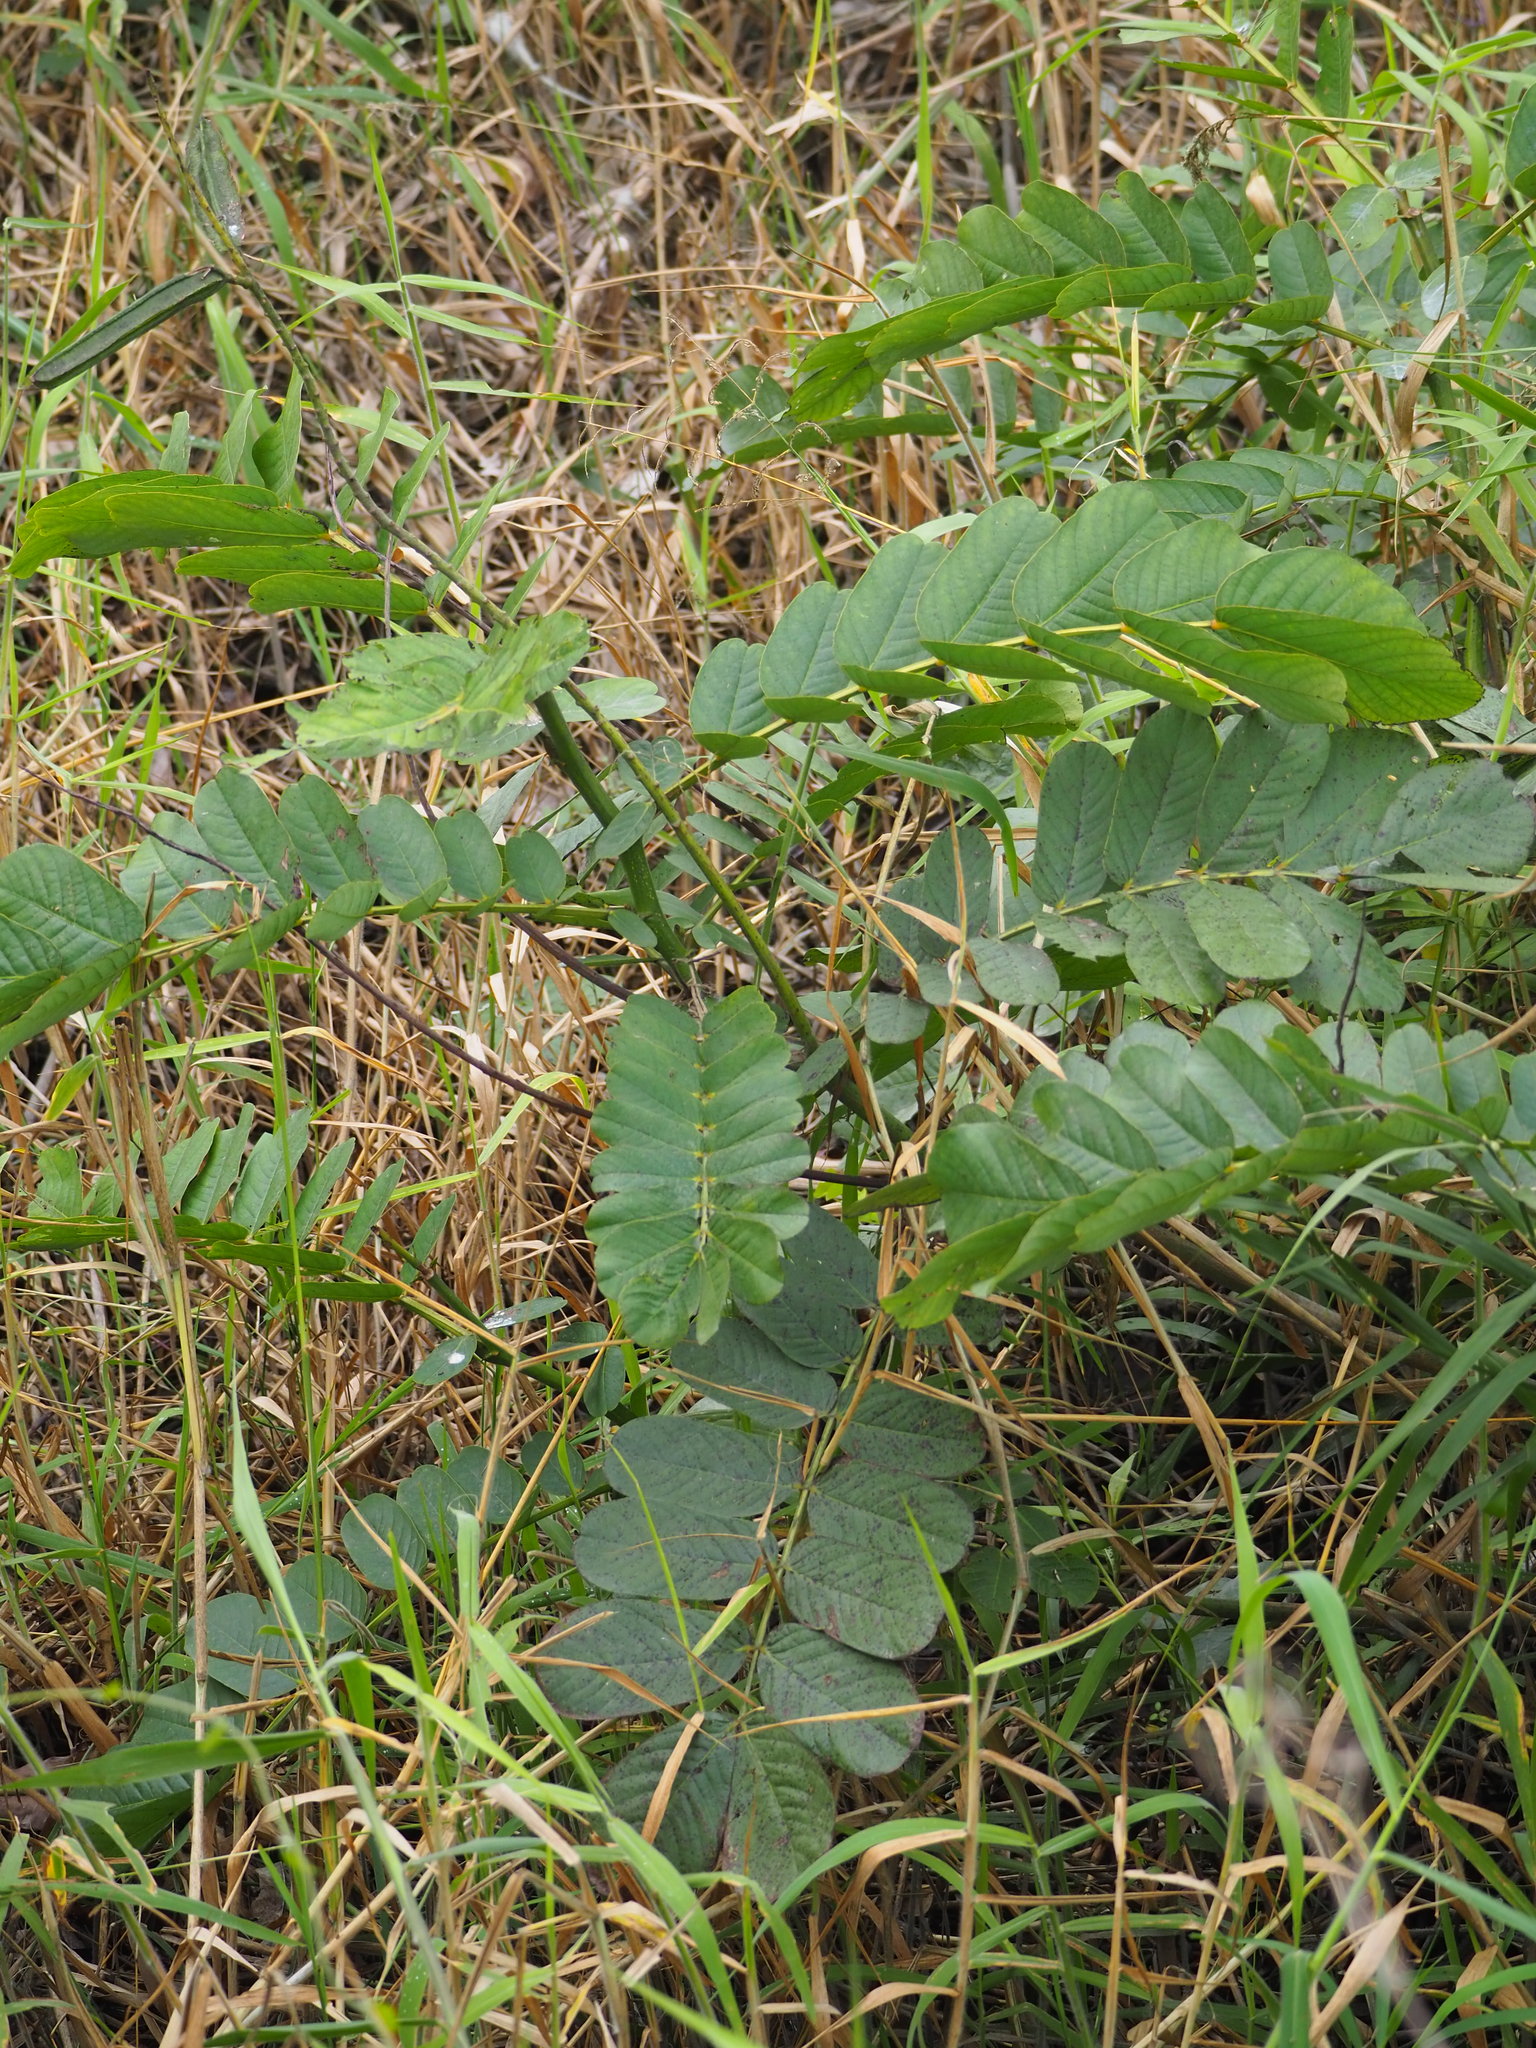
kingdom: Plantae
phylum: Tracheophyta
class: Magnoliopsida
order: Fabales
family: Fabaceae
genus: Senna
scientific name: Senna alata
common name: Emperor's candlesticks
